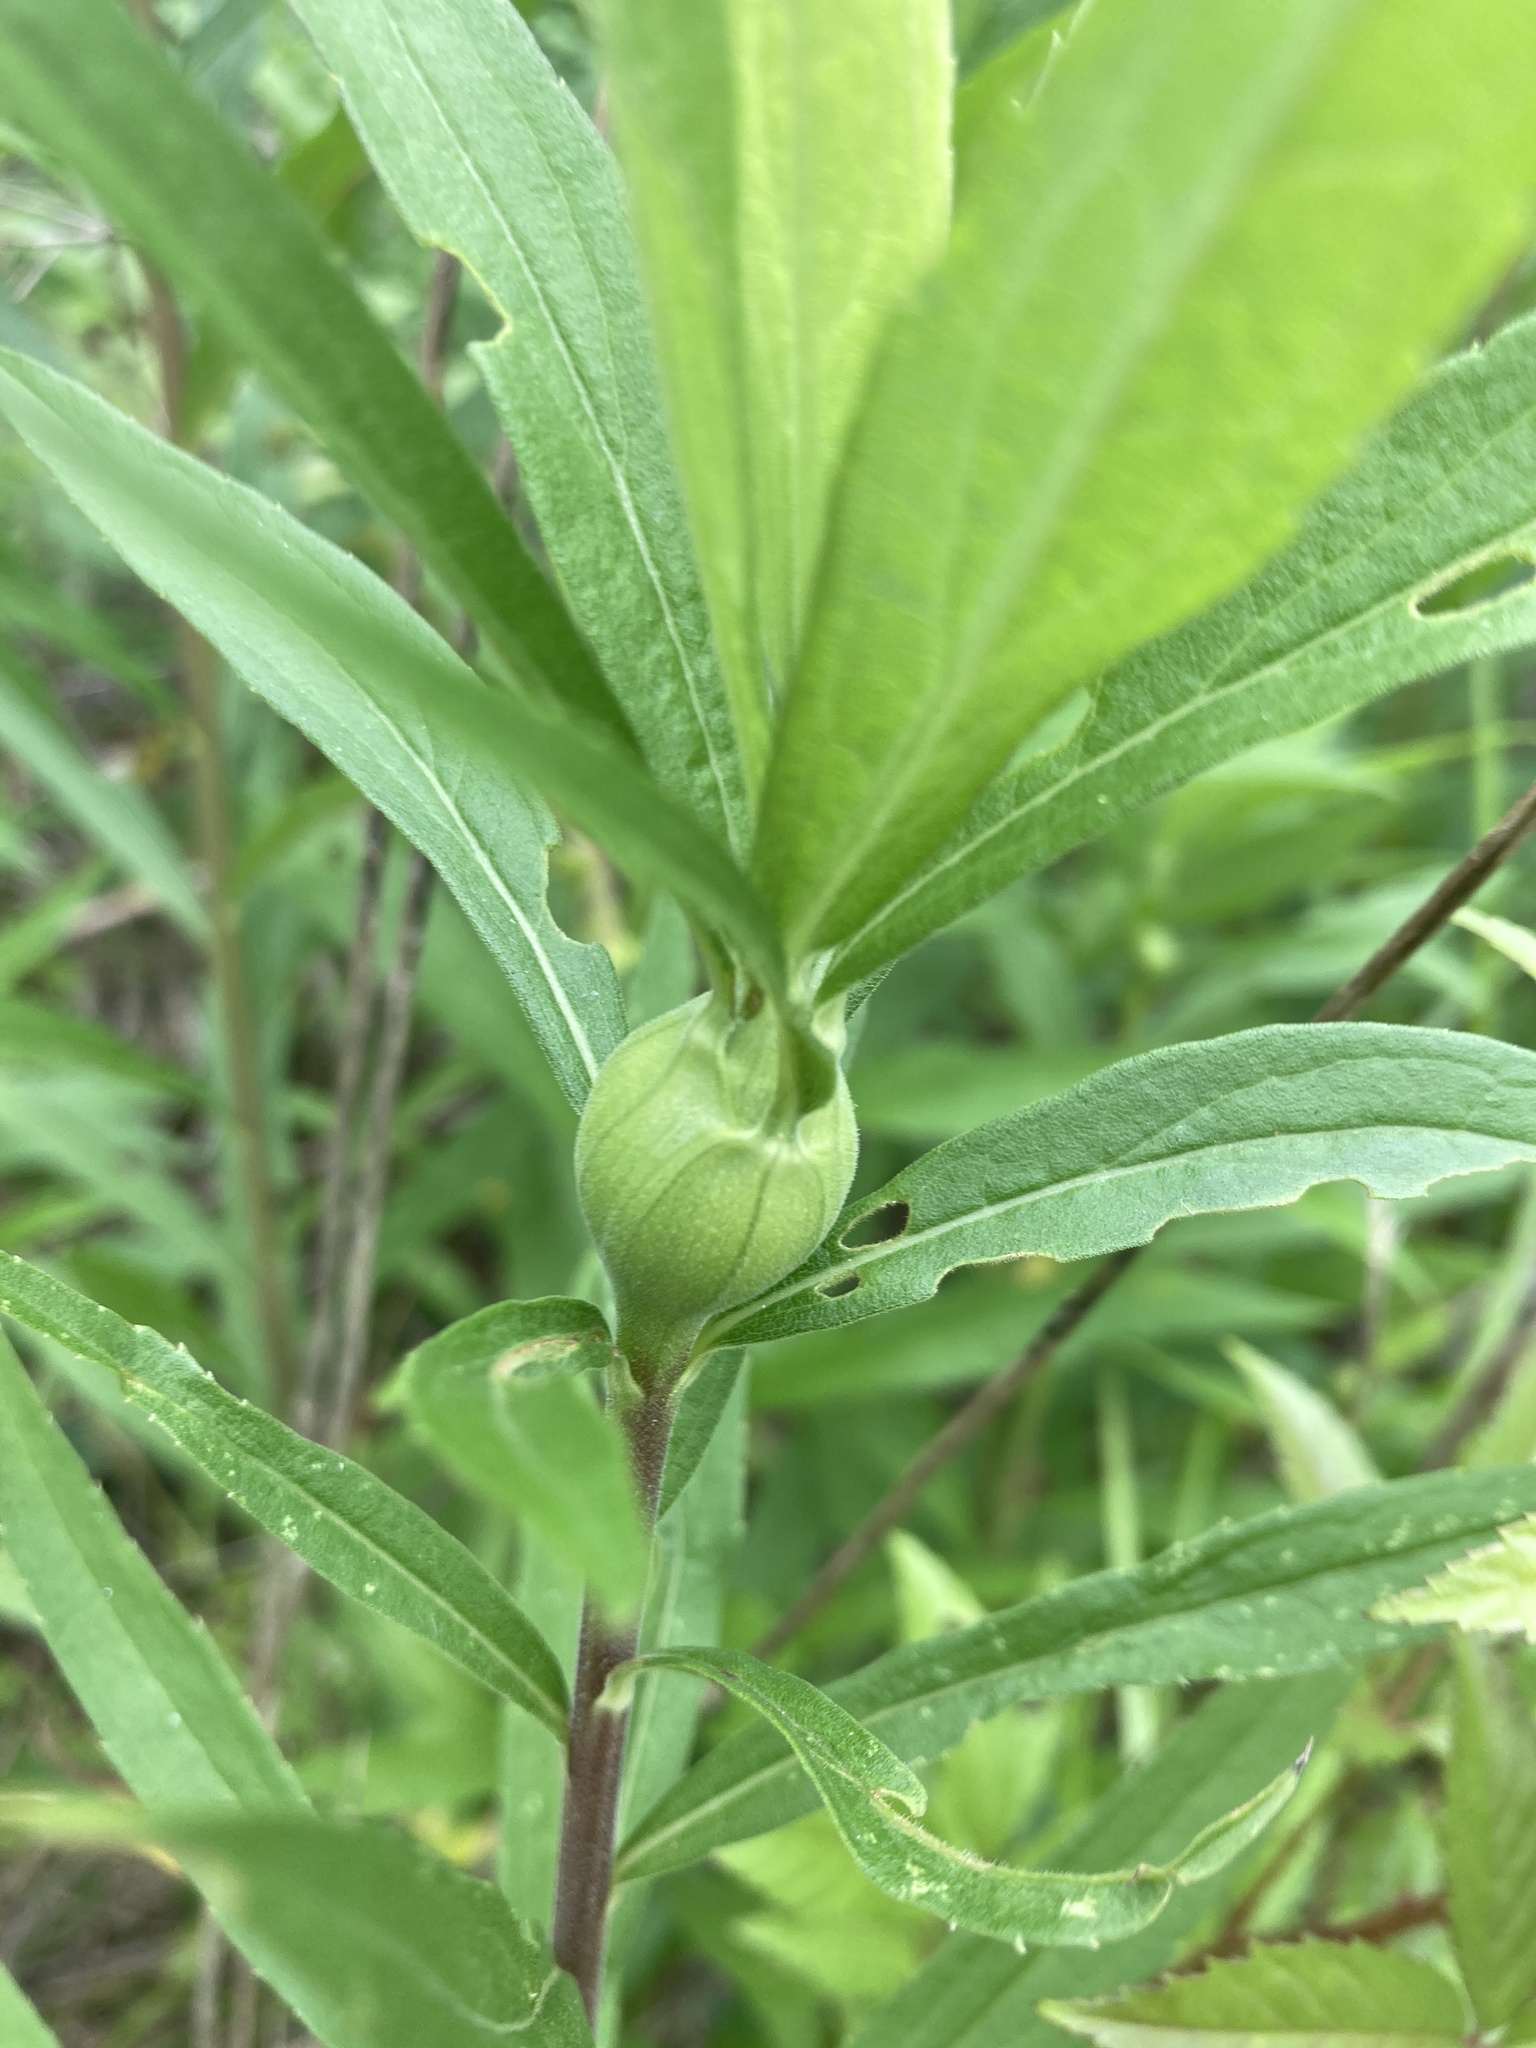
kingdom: Animalia
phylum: Arthropoda
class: Insecta
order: Diptera
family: Tephritidae
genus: Eurosta
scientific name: Eurosta solidaginis
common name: Goldenrod gall fly
